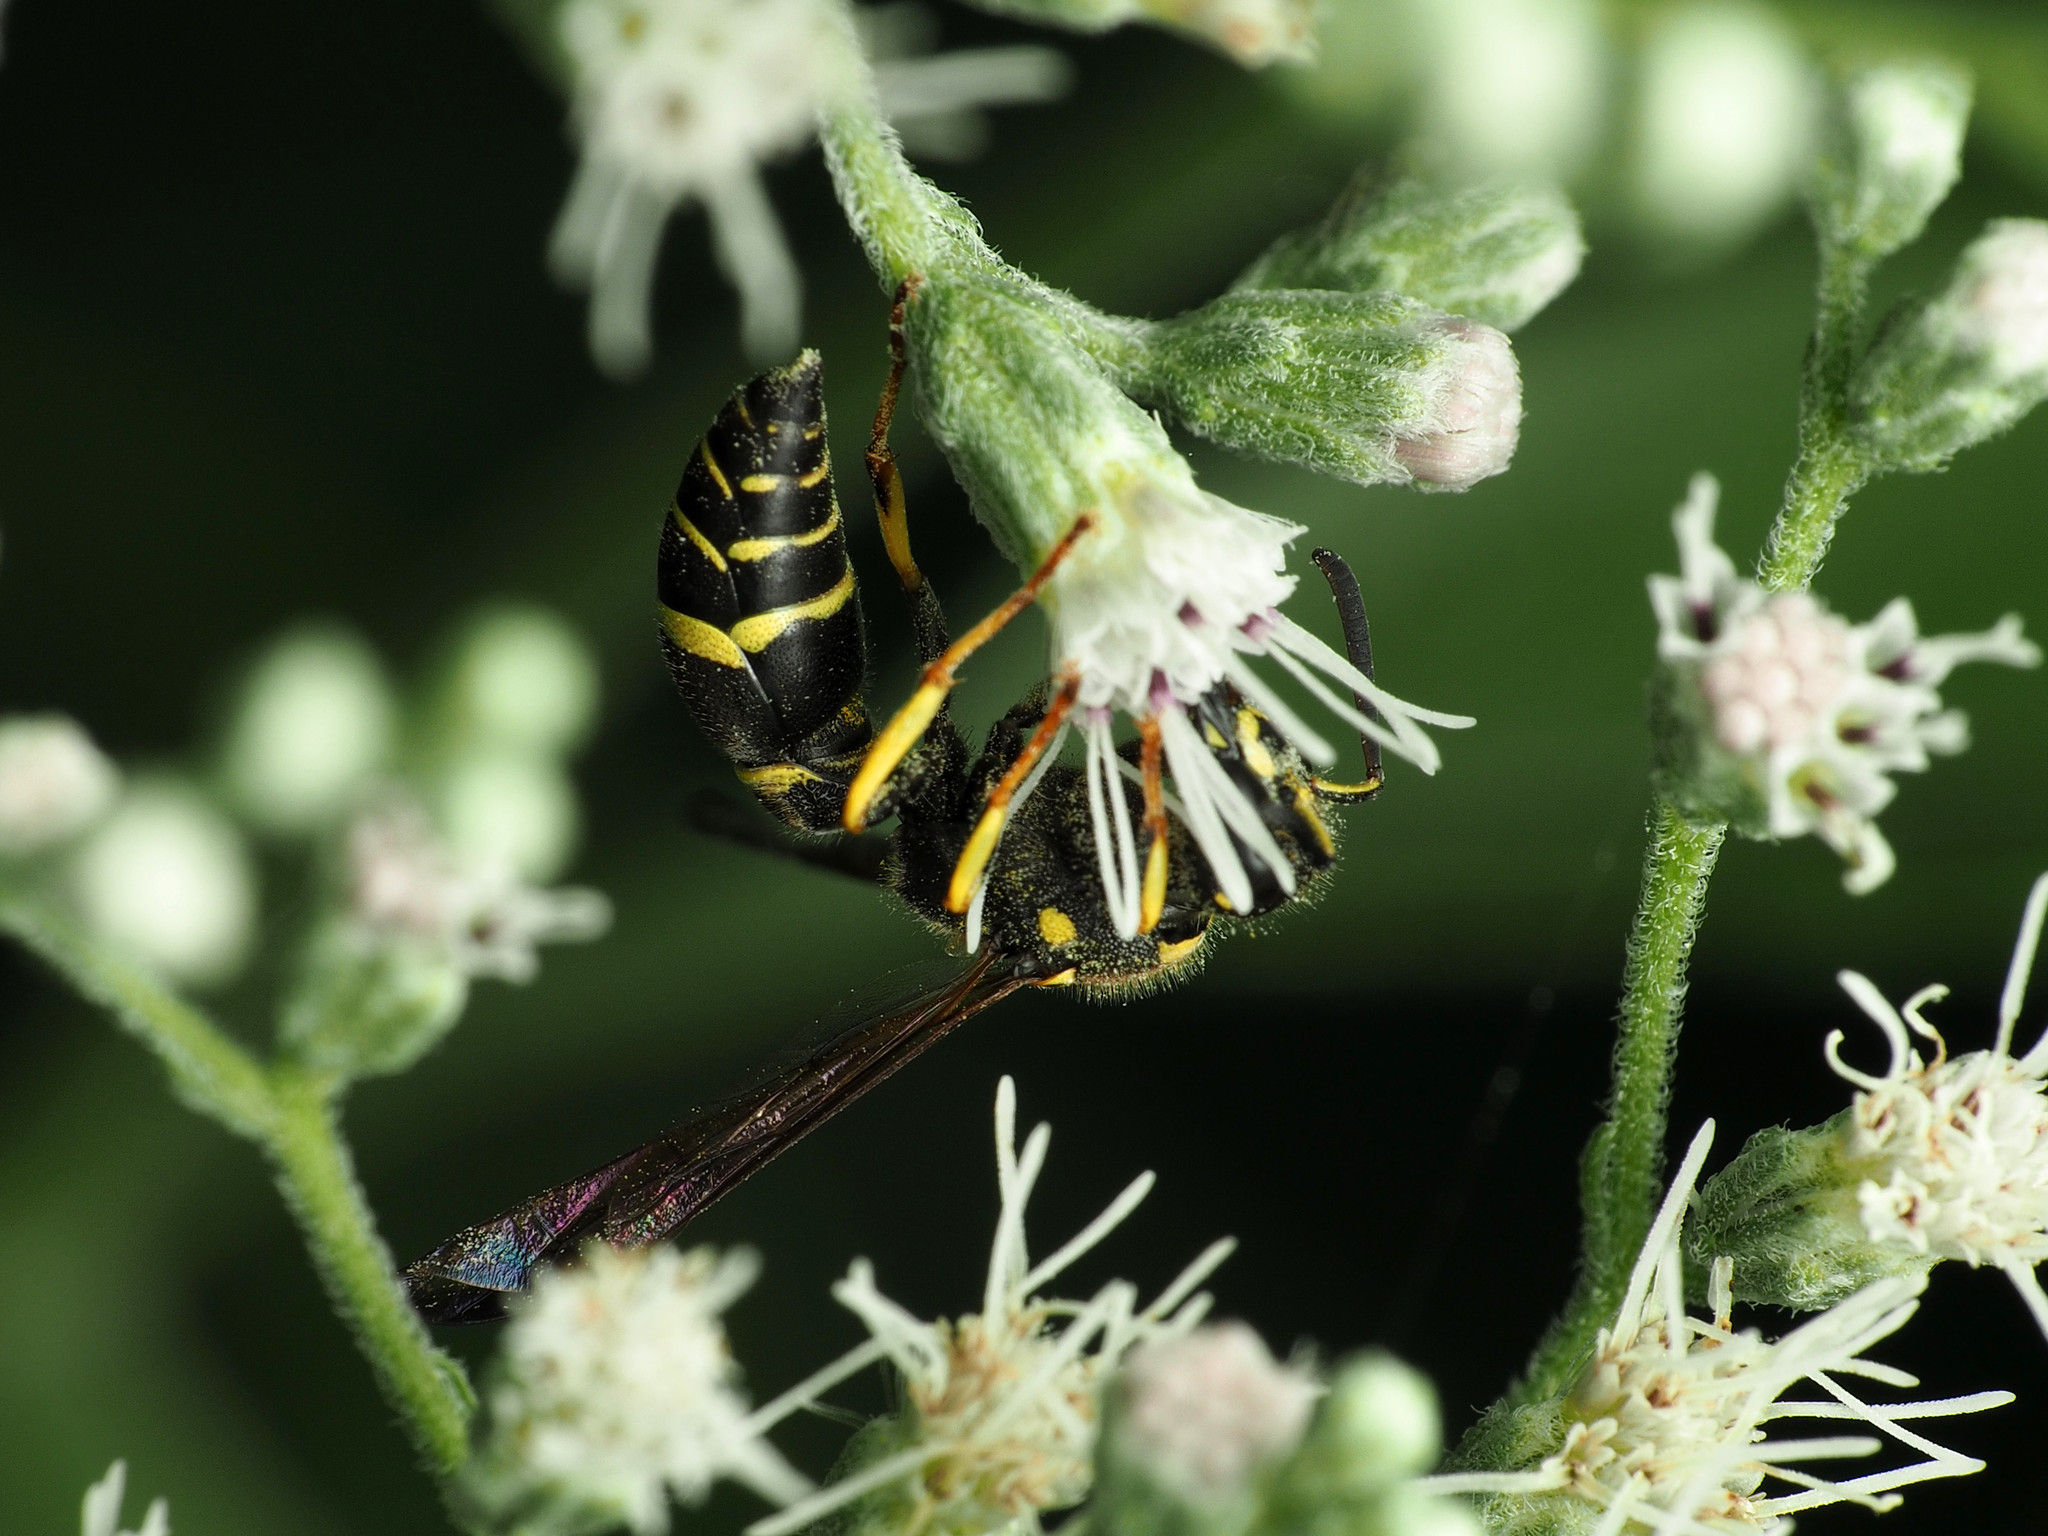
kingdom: Animalia
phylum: Arthropoda
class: Insecta
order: Hymenoptera
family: Vespidae
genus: Ancistrocerus
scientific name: Ancistrocerus adiabatus
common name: Bramble mason wasp
